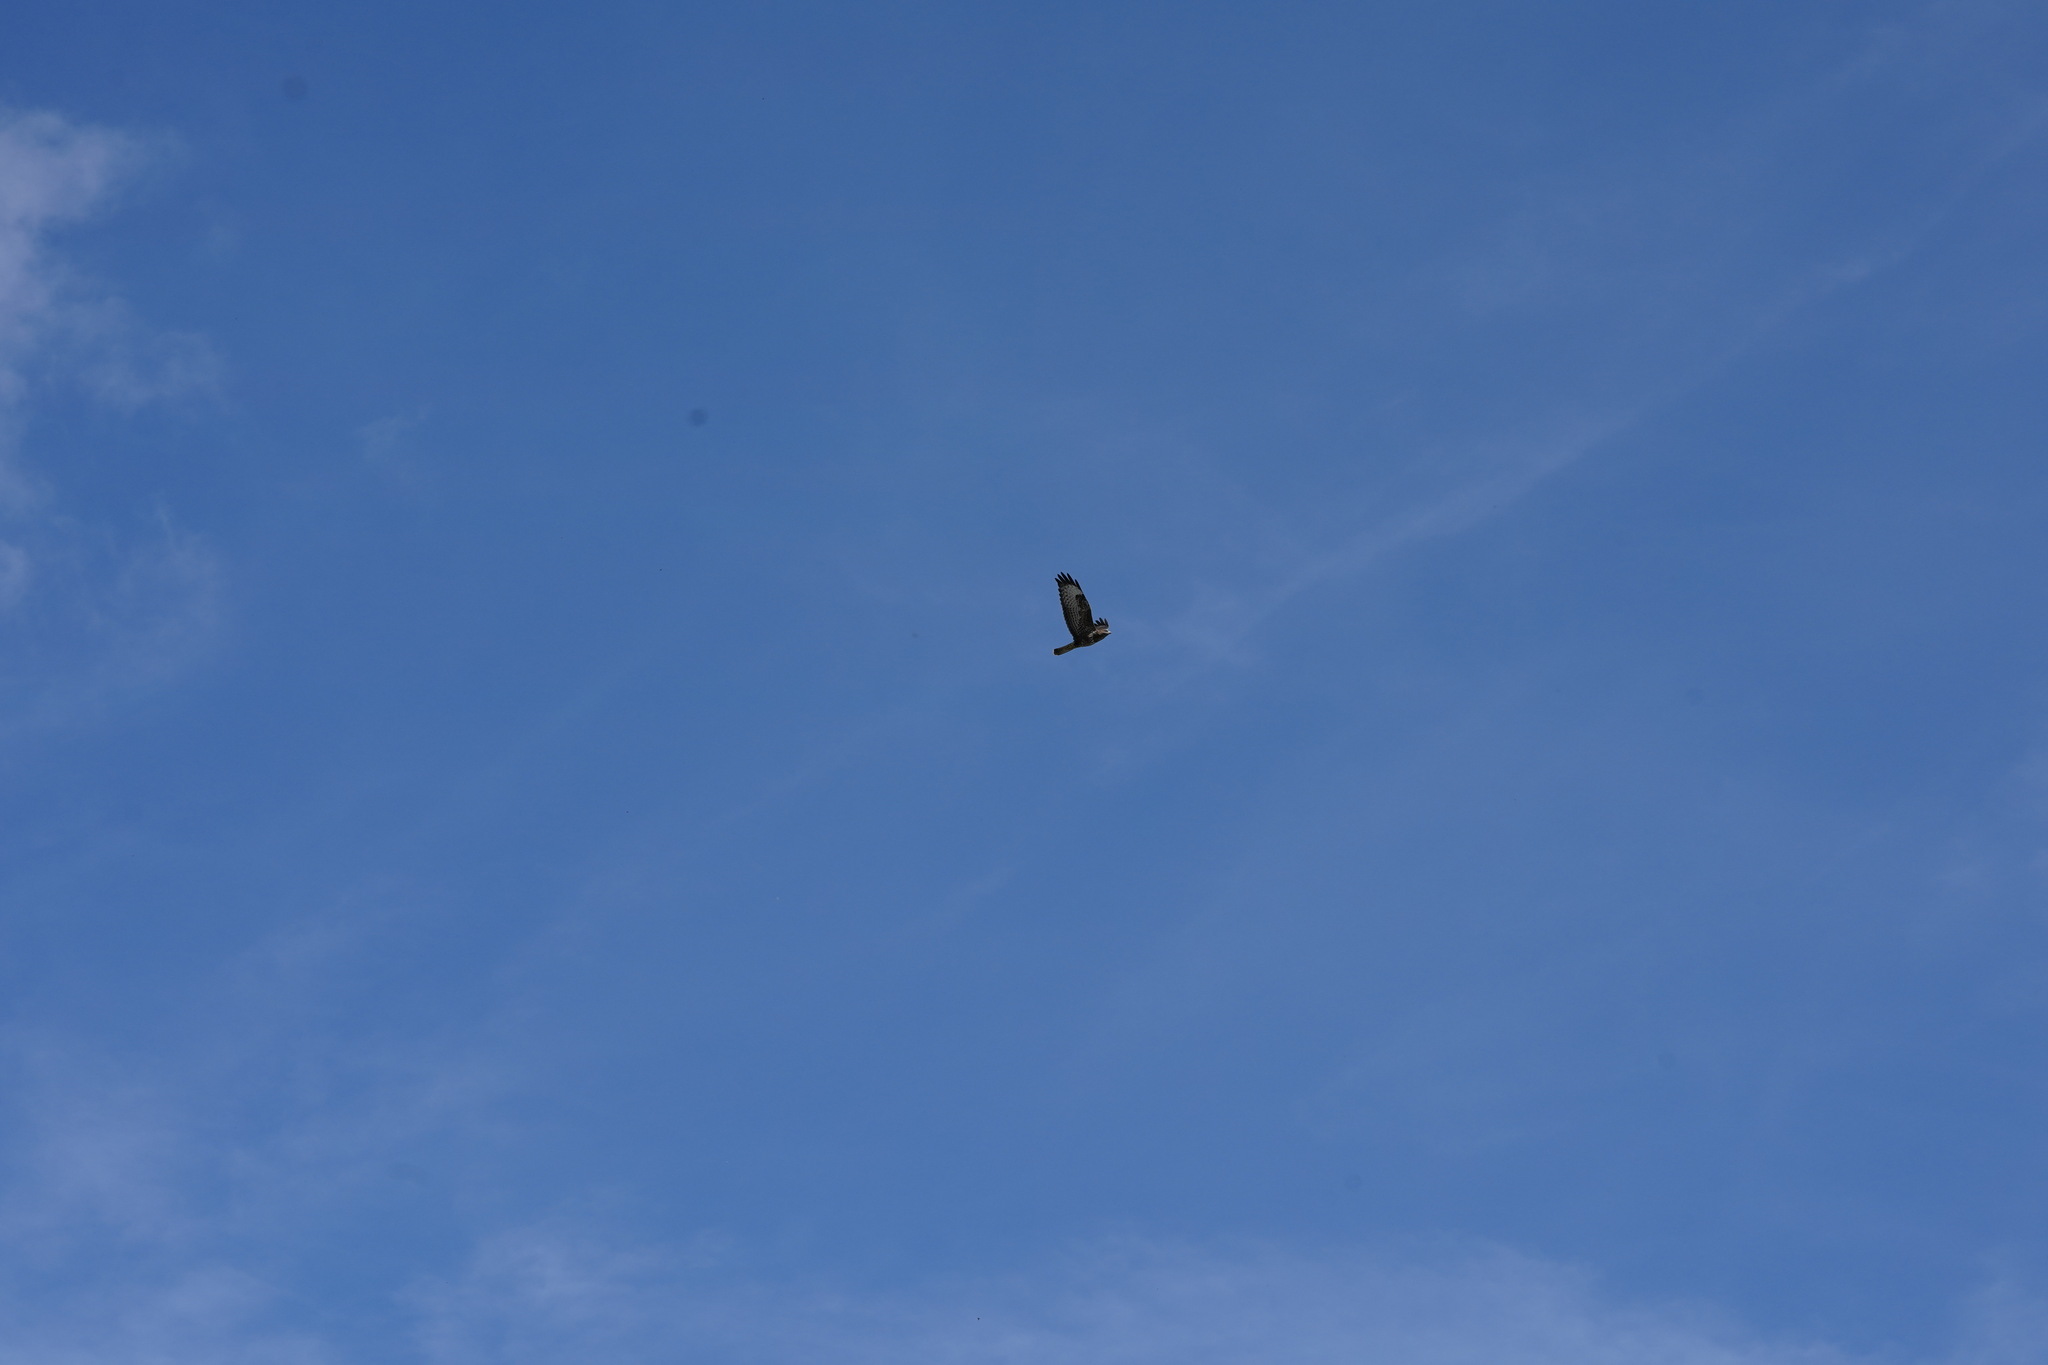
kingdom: Animalia
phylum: Chordata
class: Aves
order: Accipitriformes
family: Accipitridae
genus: Buteo
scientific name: Buteo buteo
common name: Common buzzard
